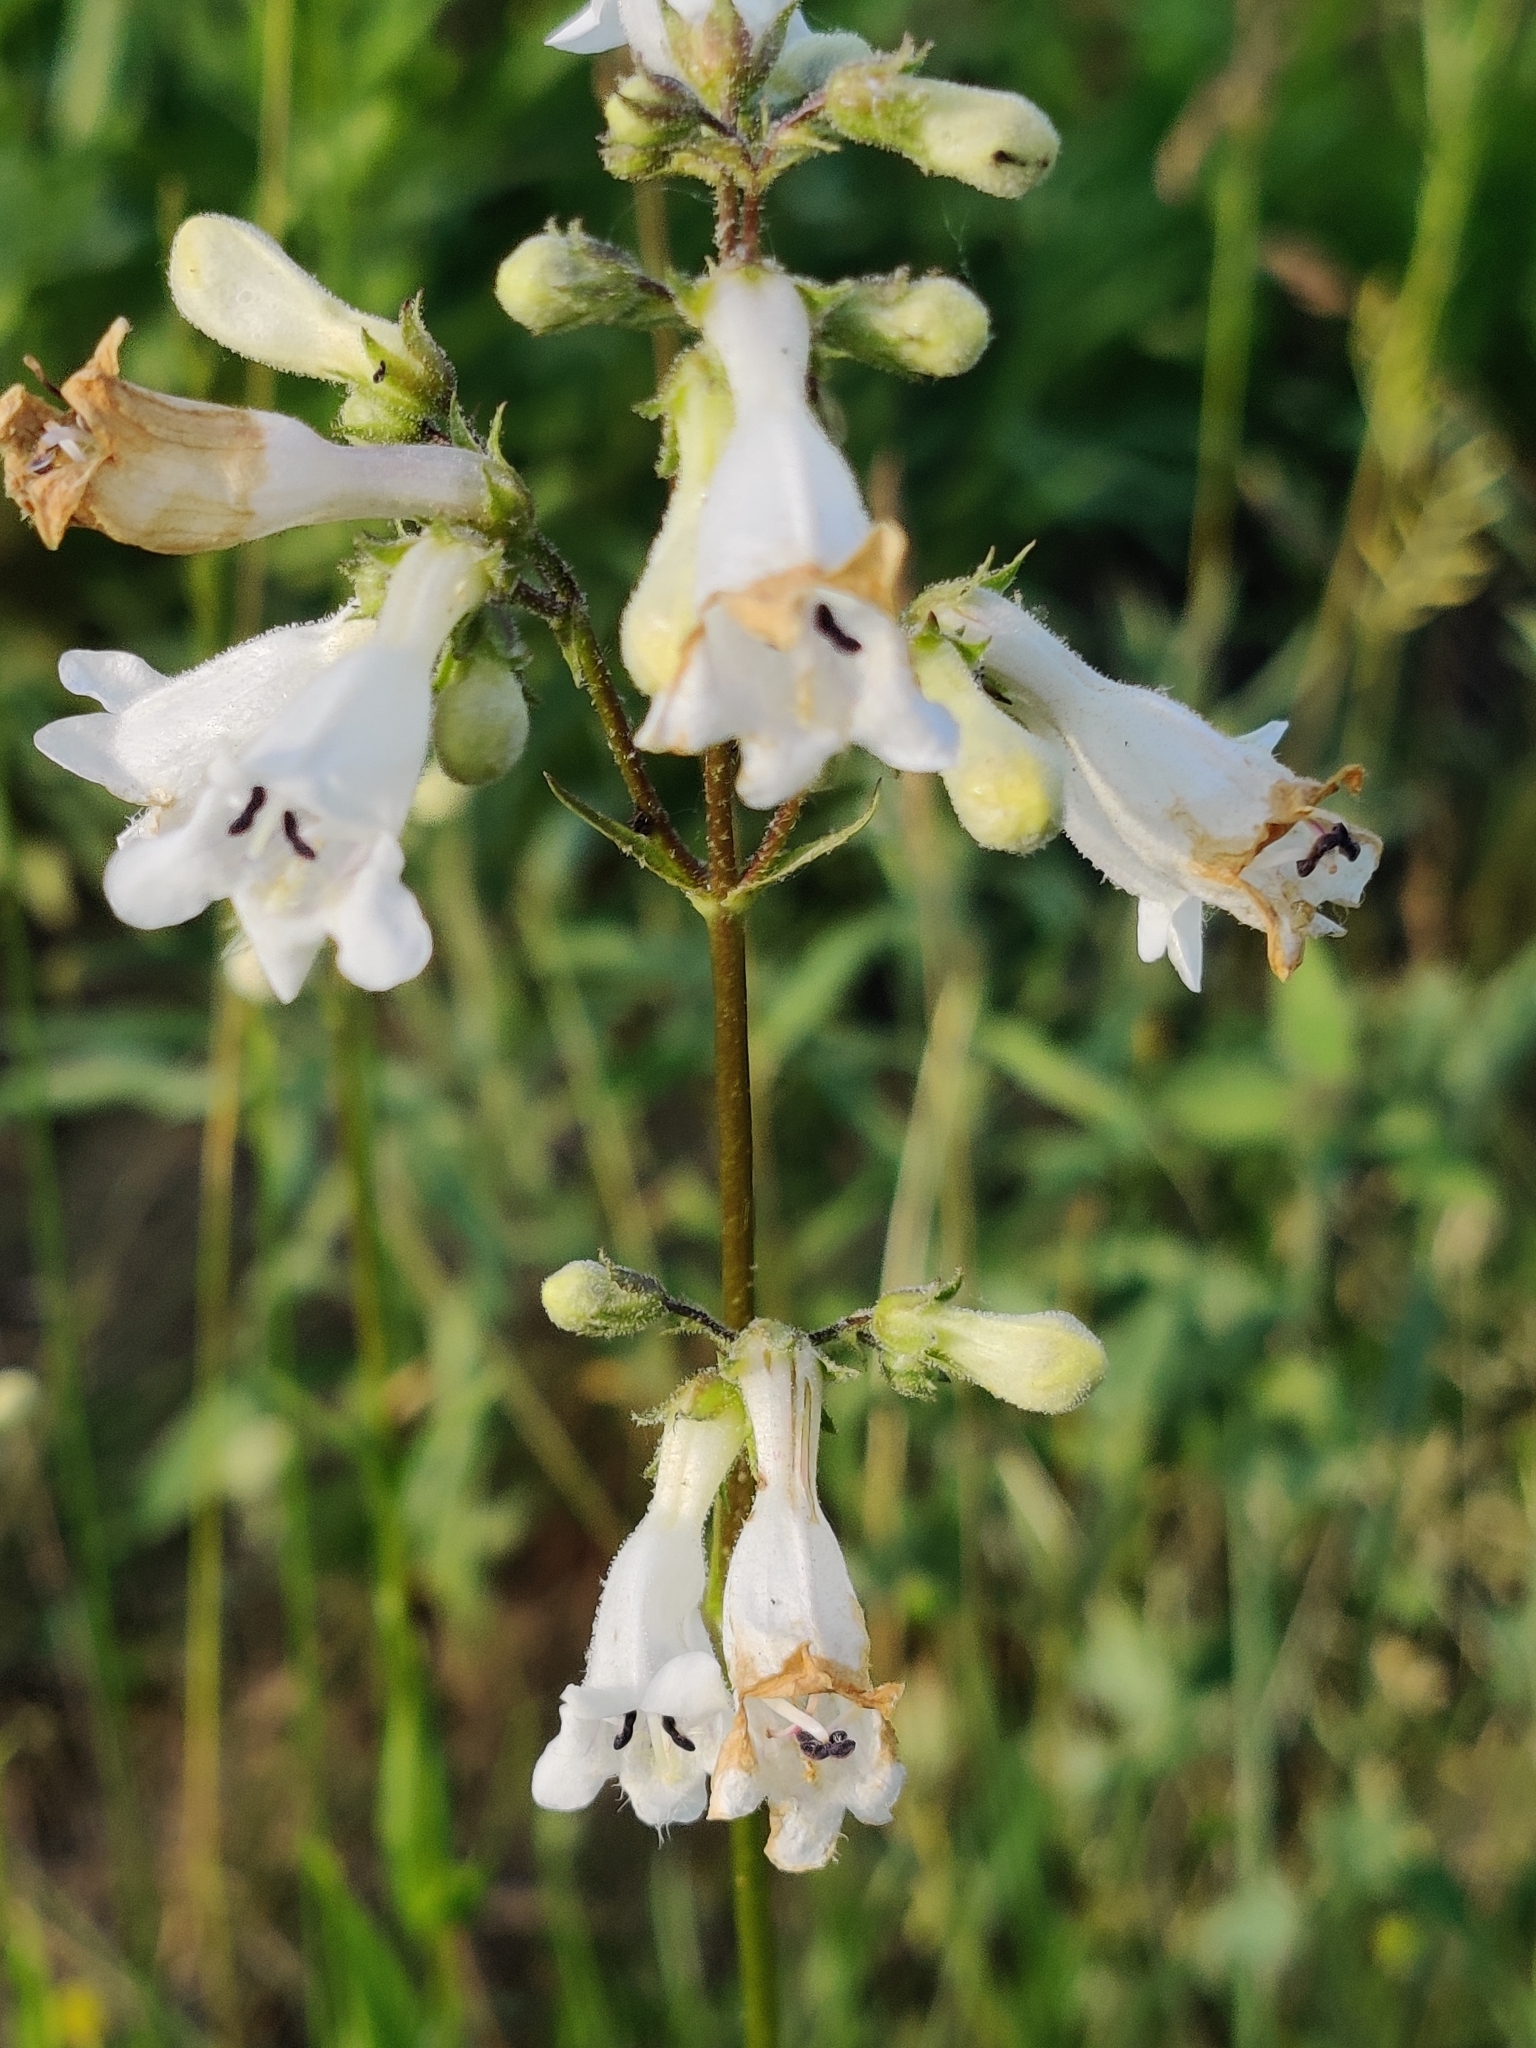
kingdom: Plantae
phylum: Tracheophyta
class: Magnoliopsida
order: Lamiales
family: Plantaginaceae
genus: Penstemon
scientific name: Penstemon digitalis
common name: Foxglove beardtongue
